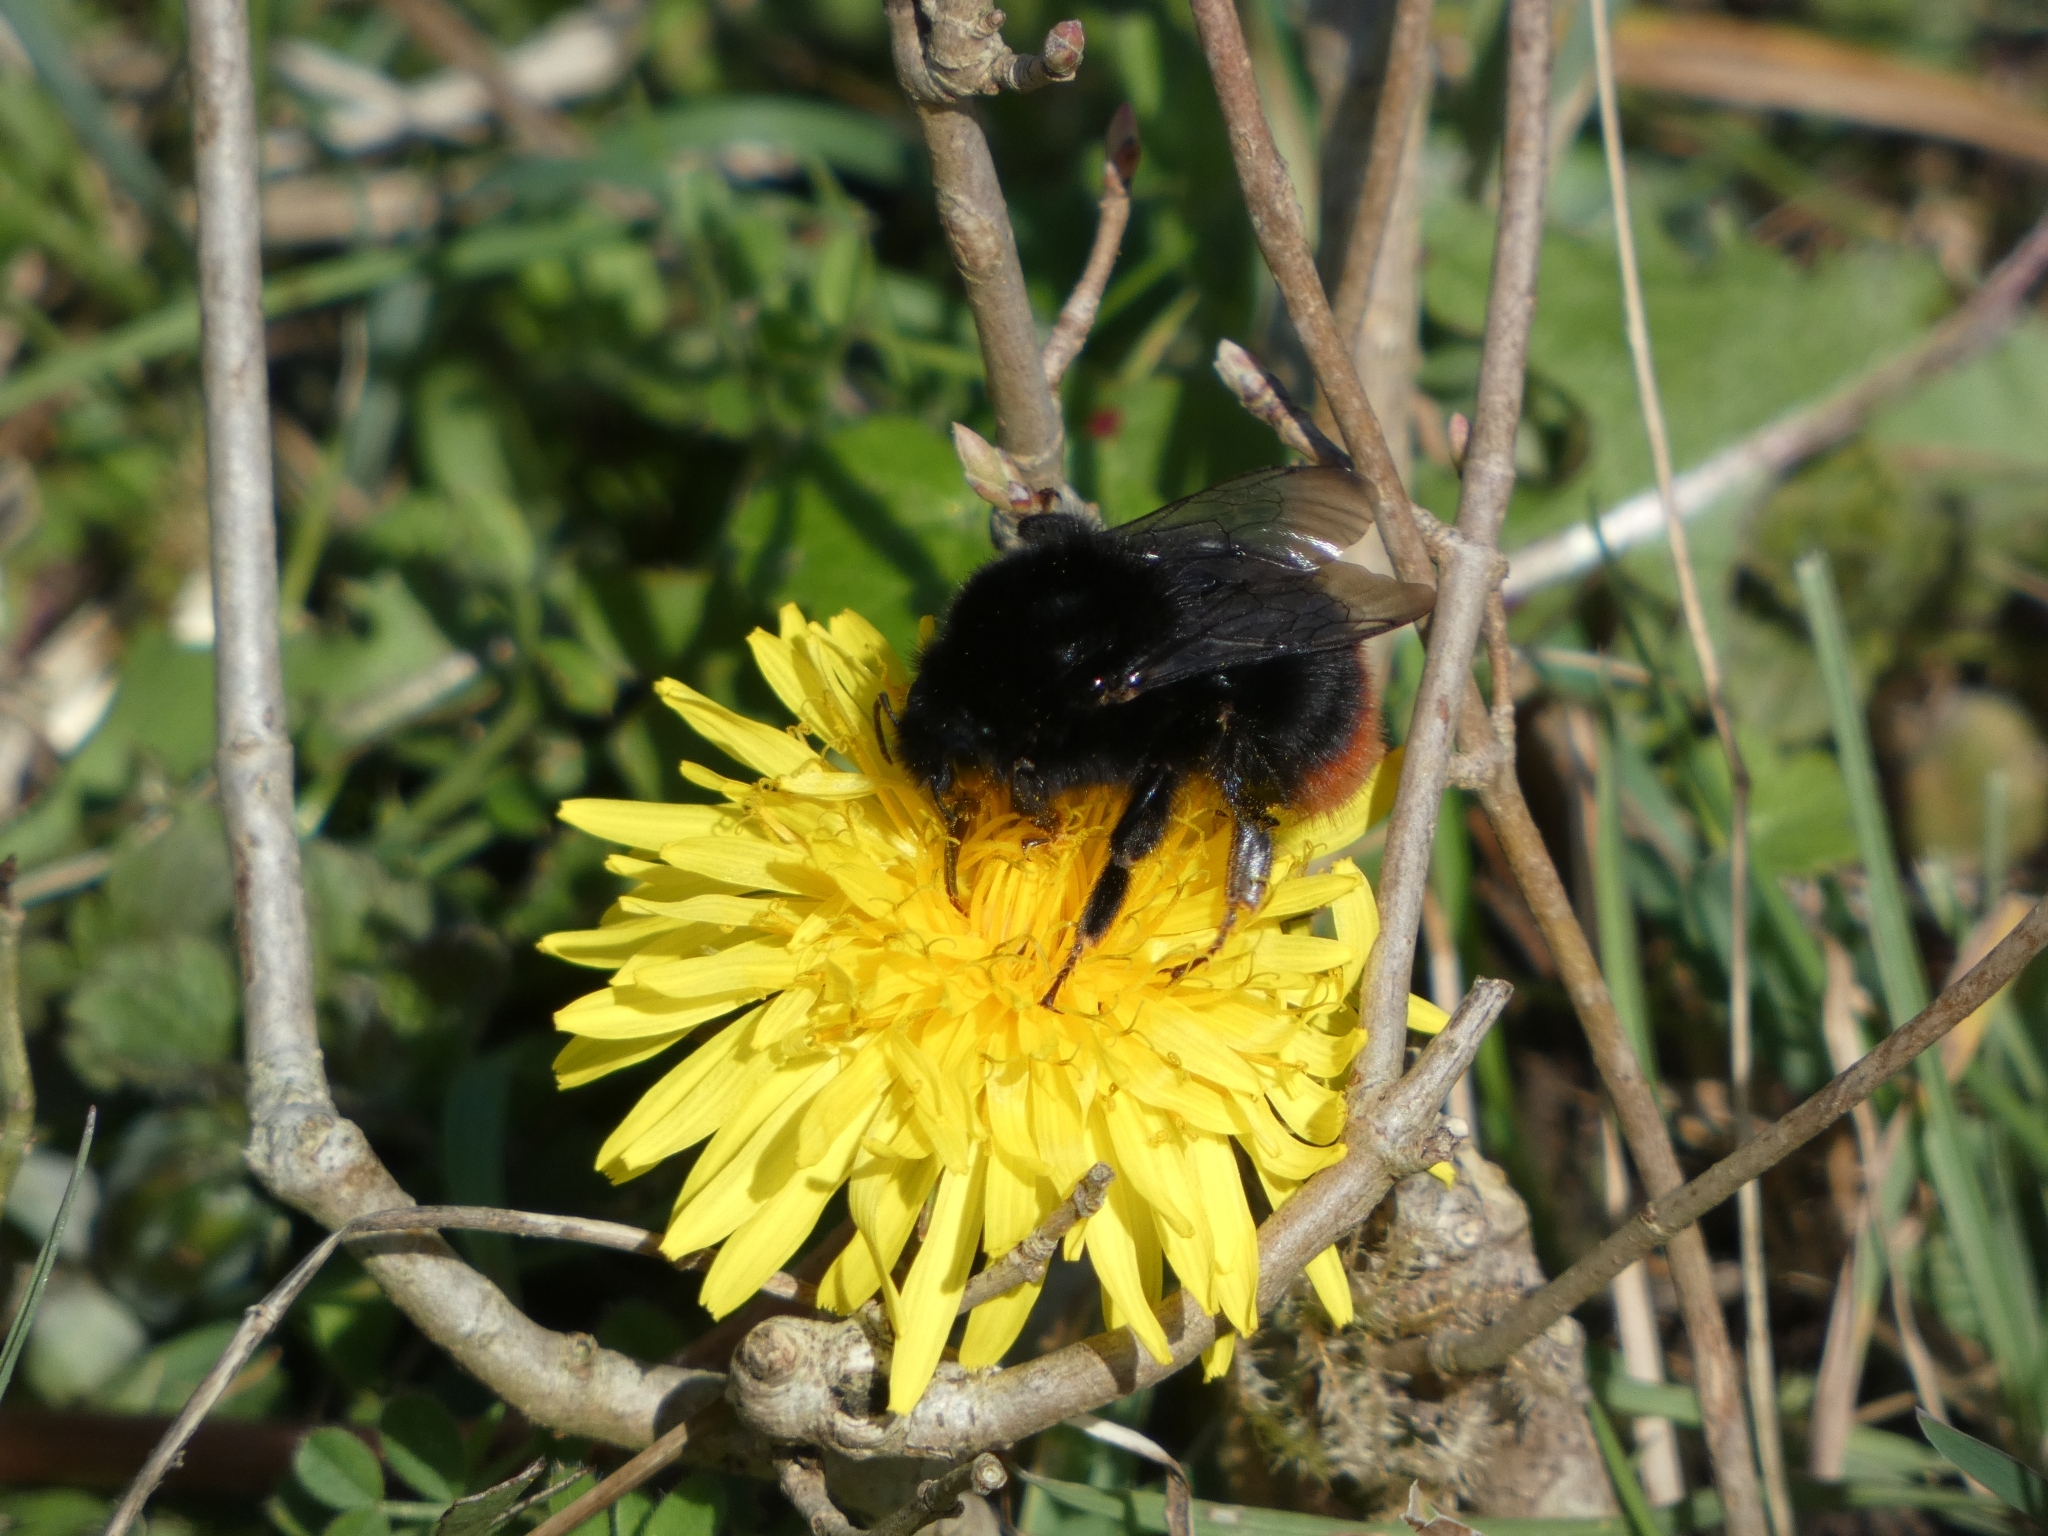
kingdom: Animalia
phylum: Arthropoda
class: Insecta
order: Hymenoptera
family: Apidae
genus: Bombus
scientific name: Bombus lapidarius
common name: Large red-tailed humble-bee
